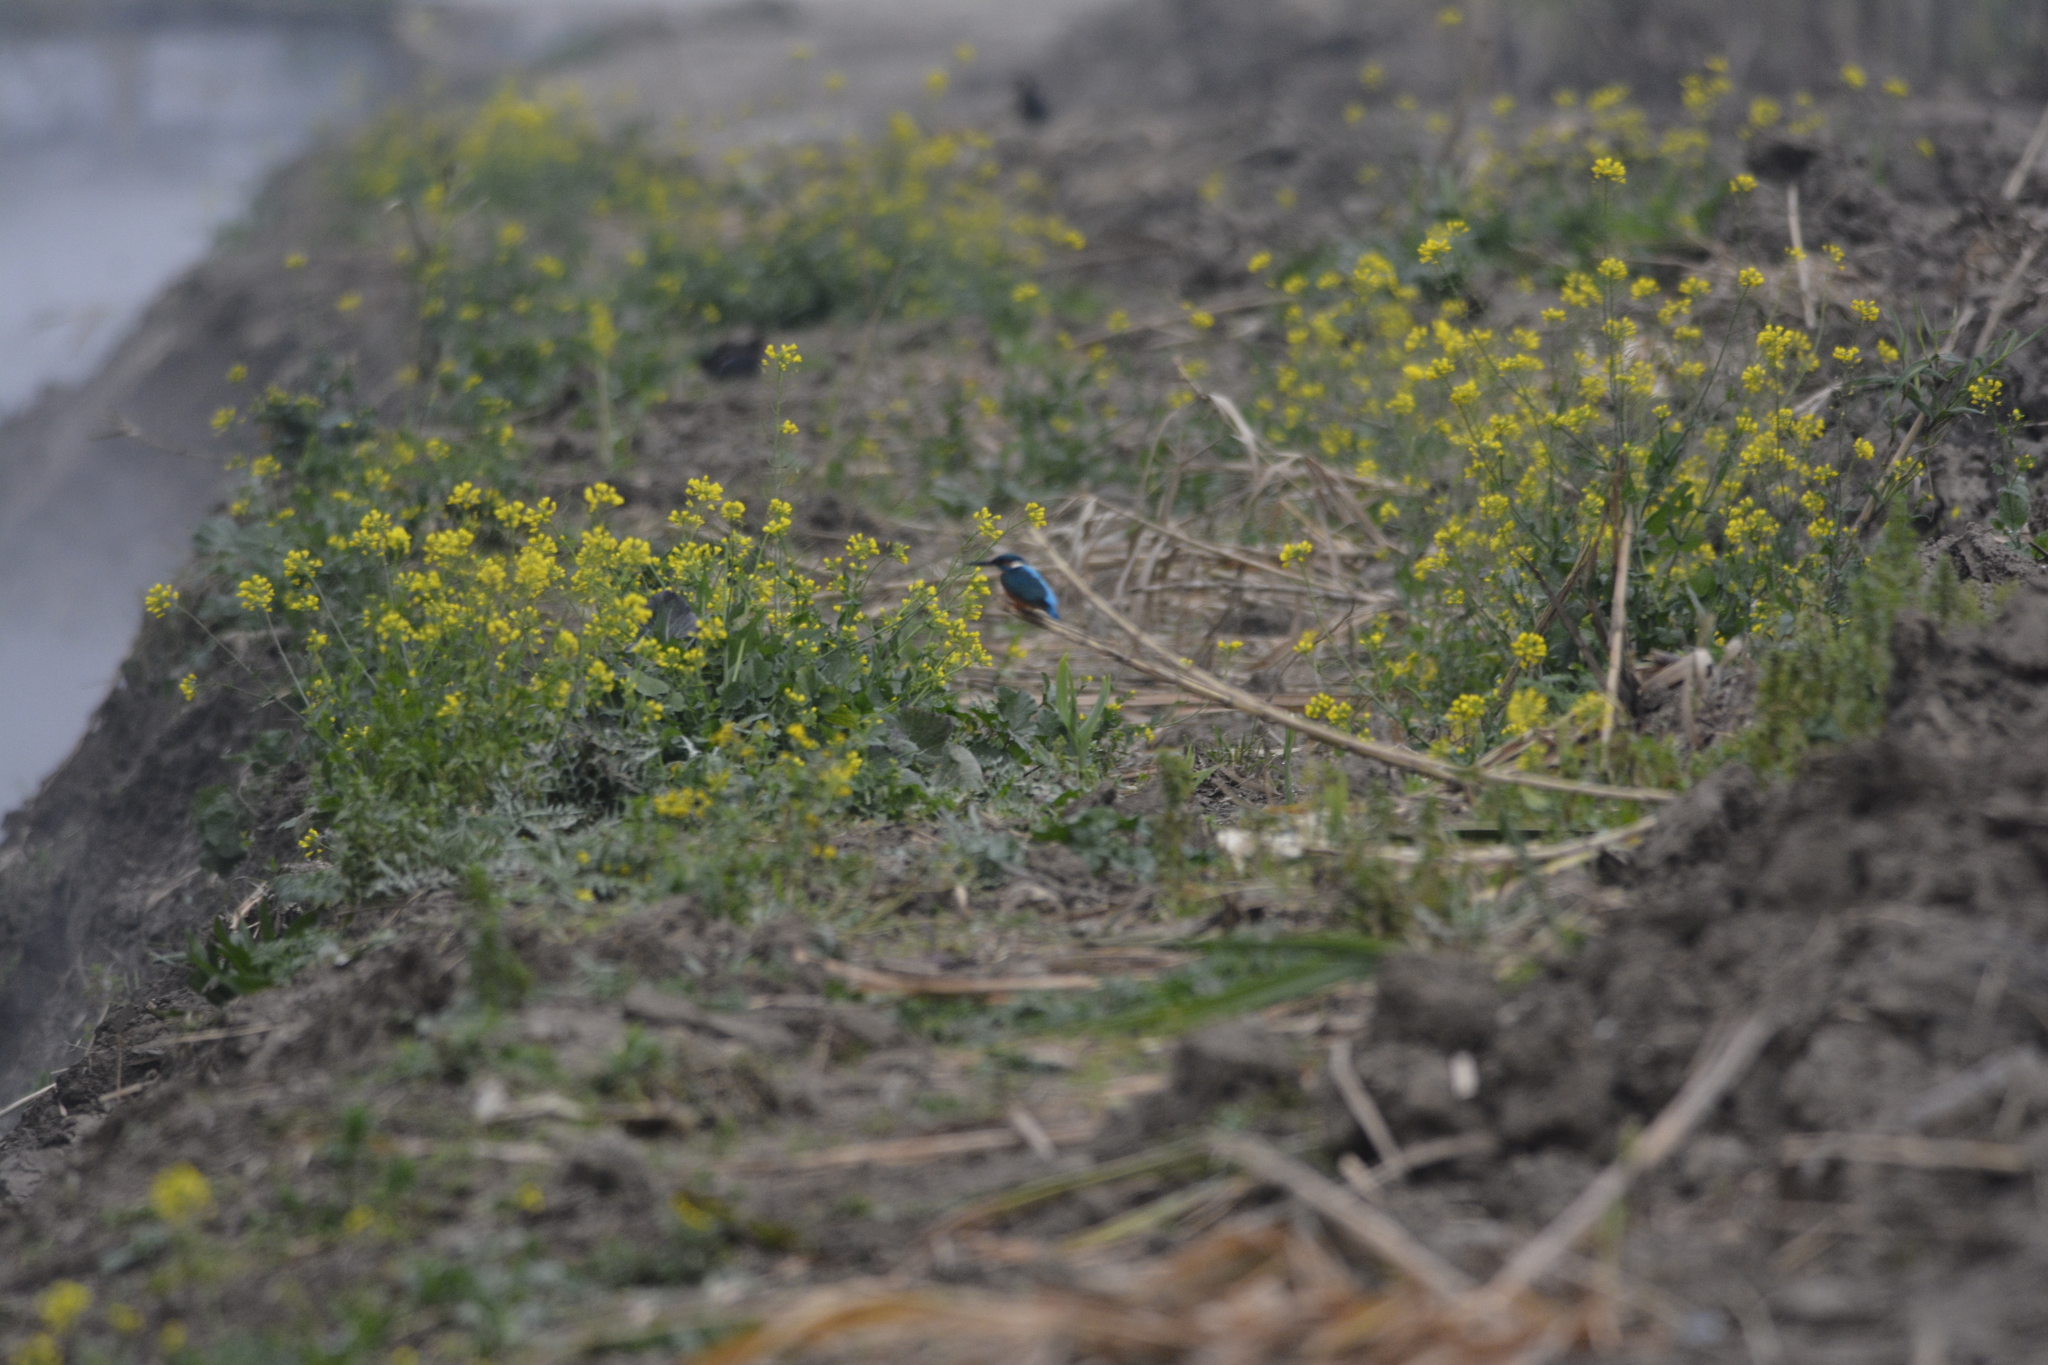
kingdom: Animalia
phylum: Chordata
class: Aves
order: Coraciiformes
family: Alcedinidae
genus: Alcedo
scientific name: Alcedo atthis
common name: Common kingfisher
